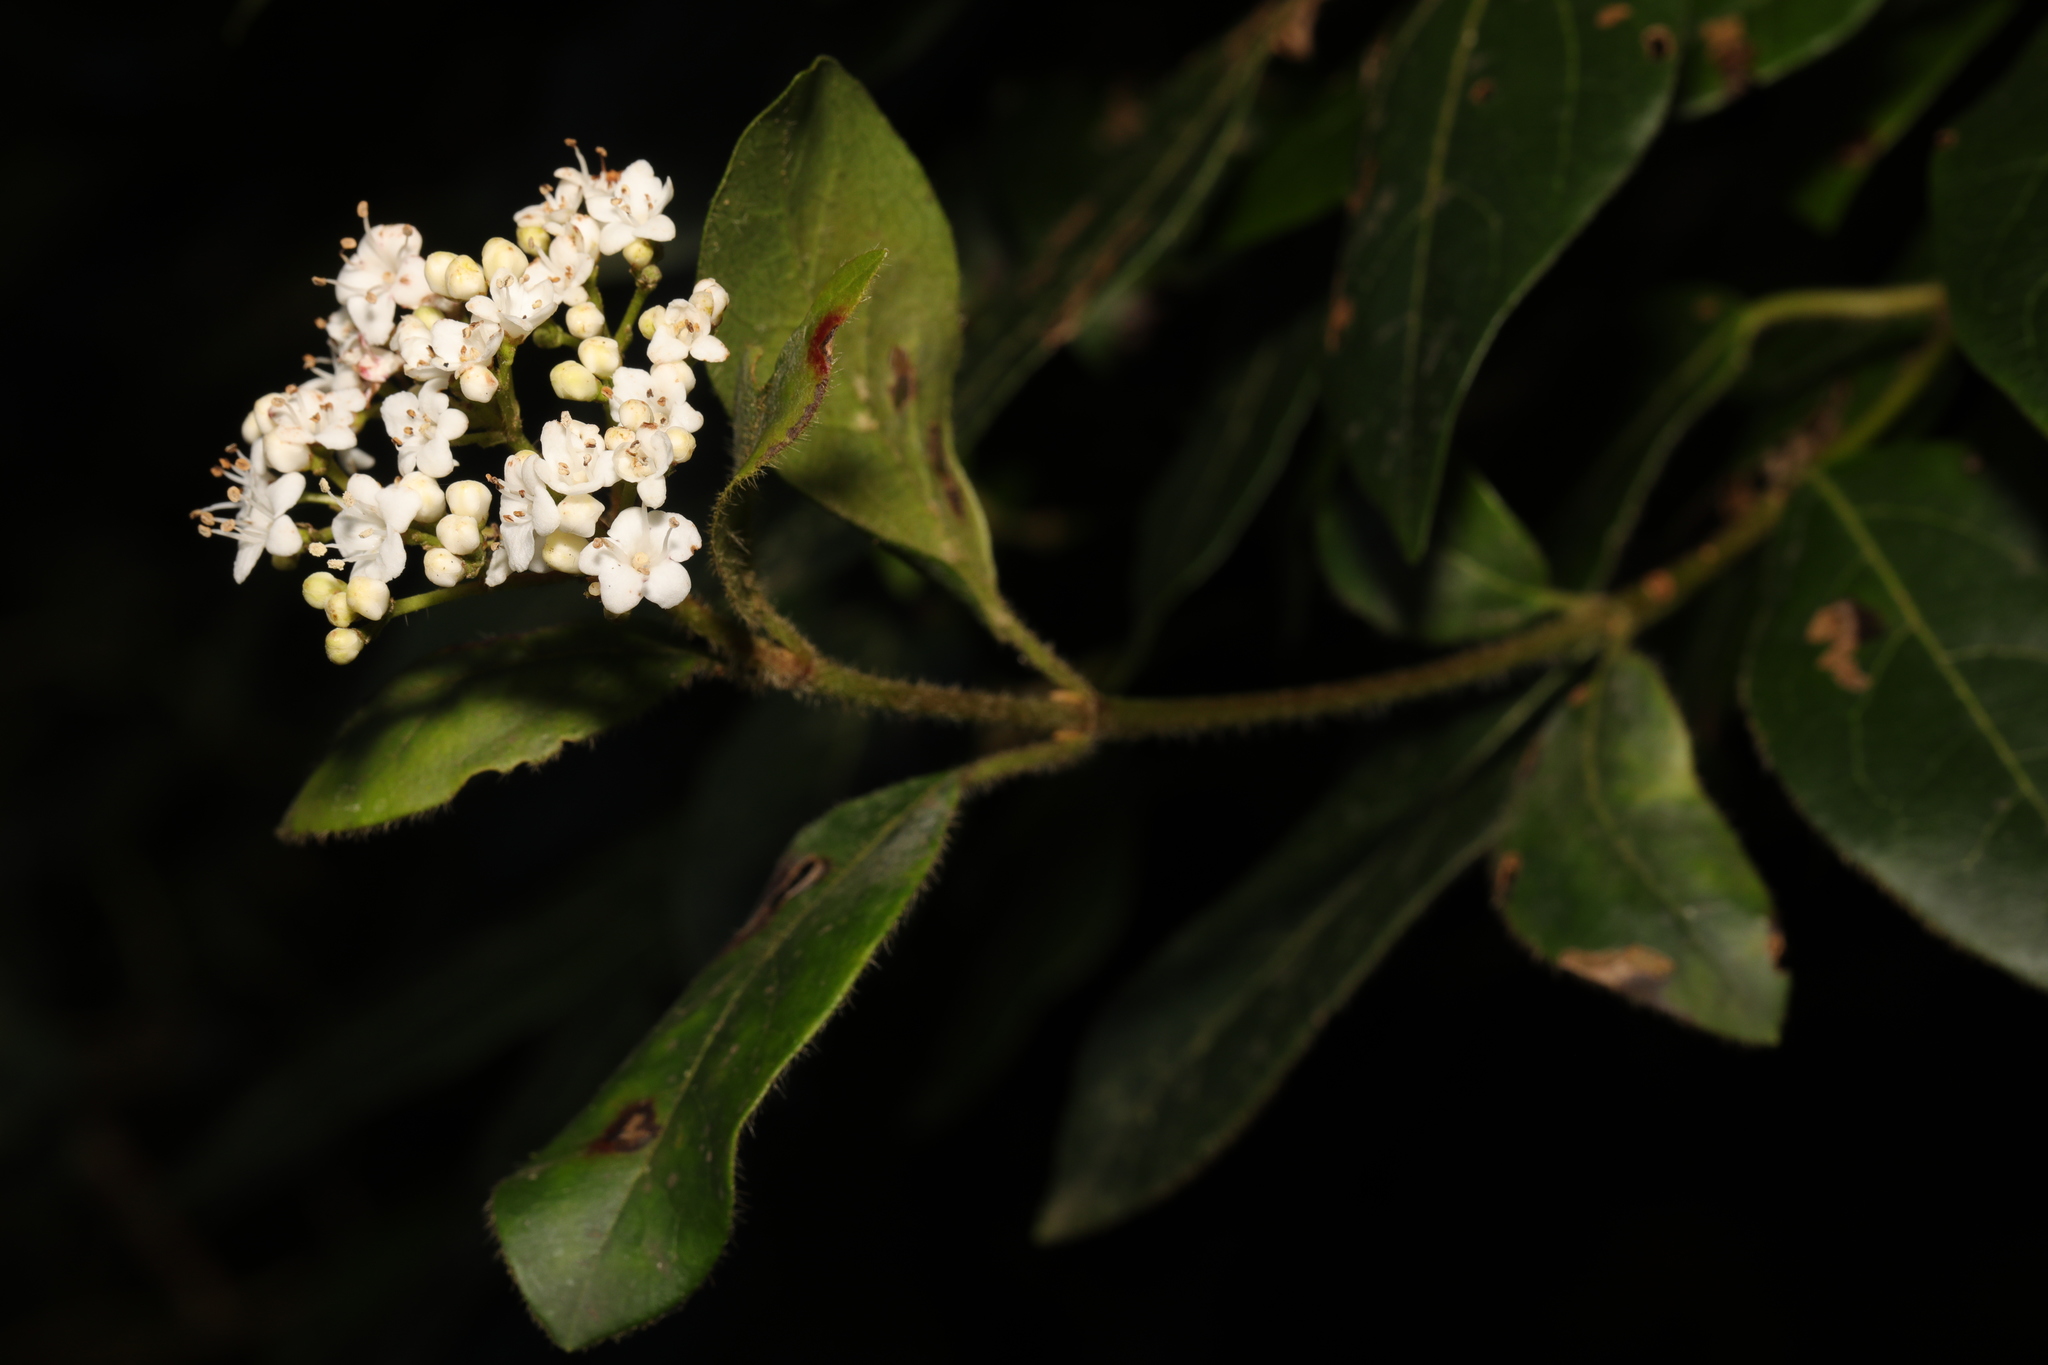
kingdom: Plantae
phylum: Tracheophyta
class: Magnoliopsida
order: Dipsacales
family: Viburnaceae
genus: Viburnum
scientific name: Viburnum tinus
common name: Laurustinus
